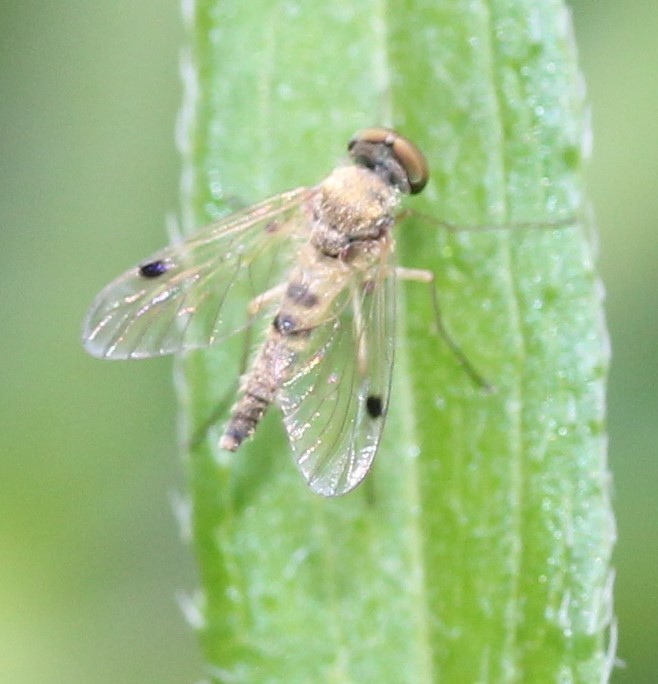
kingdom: Animalia
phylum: Arthropoda
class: Insecta
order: Diptera
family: Rhagionidae
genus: Chrysopilus
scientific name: Chrysopilus modestus
